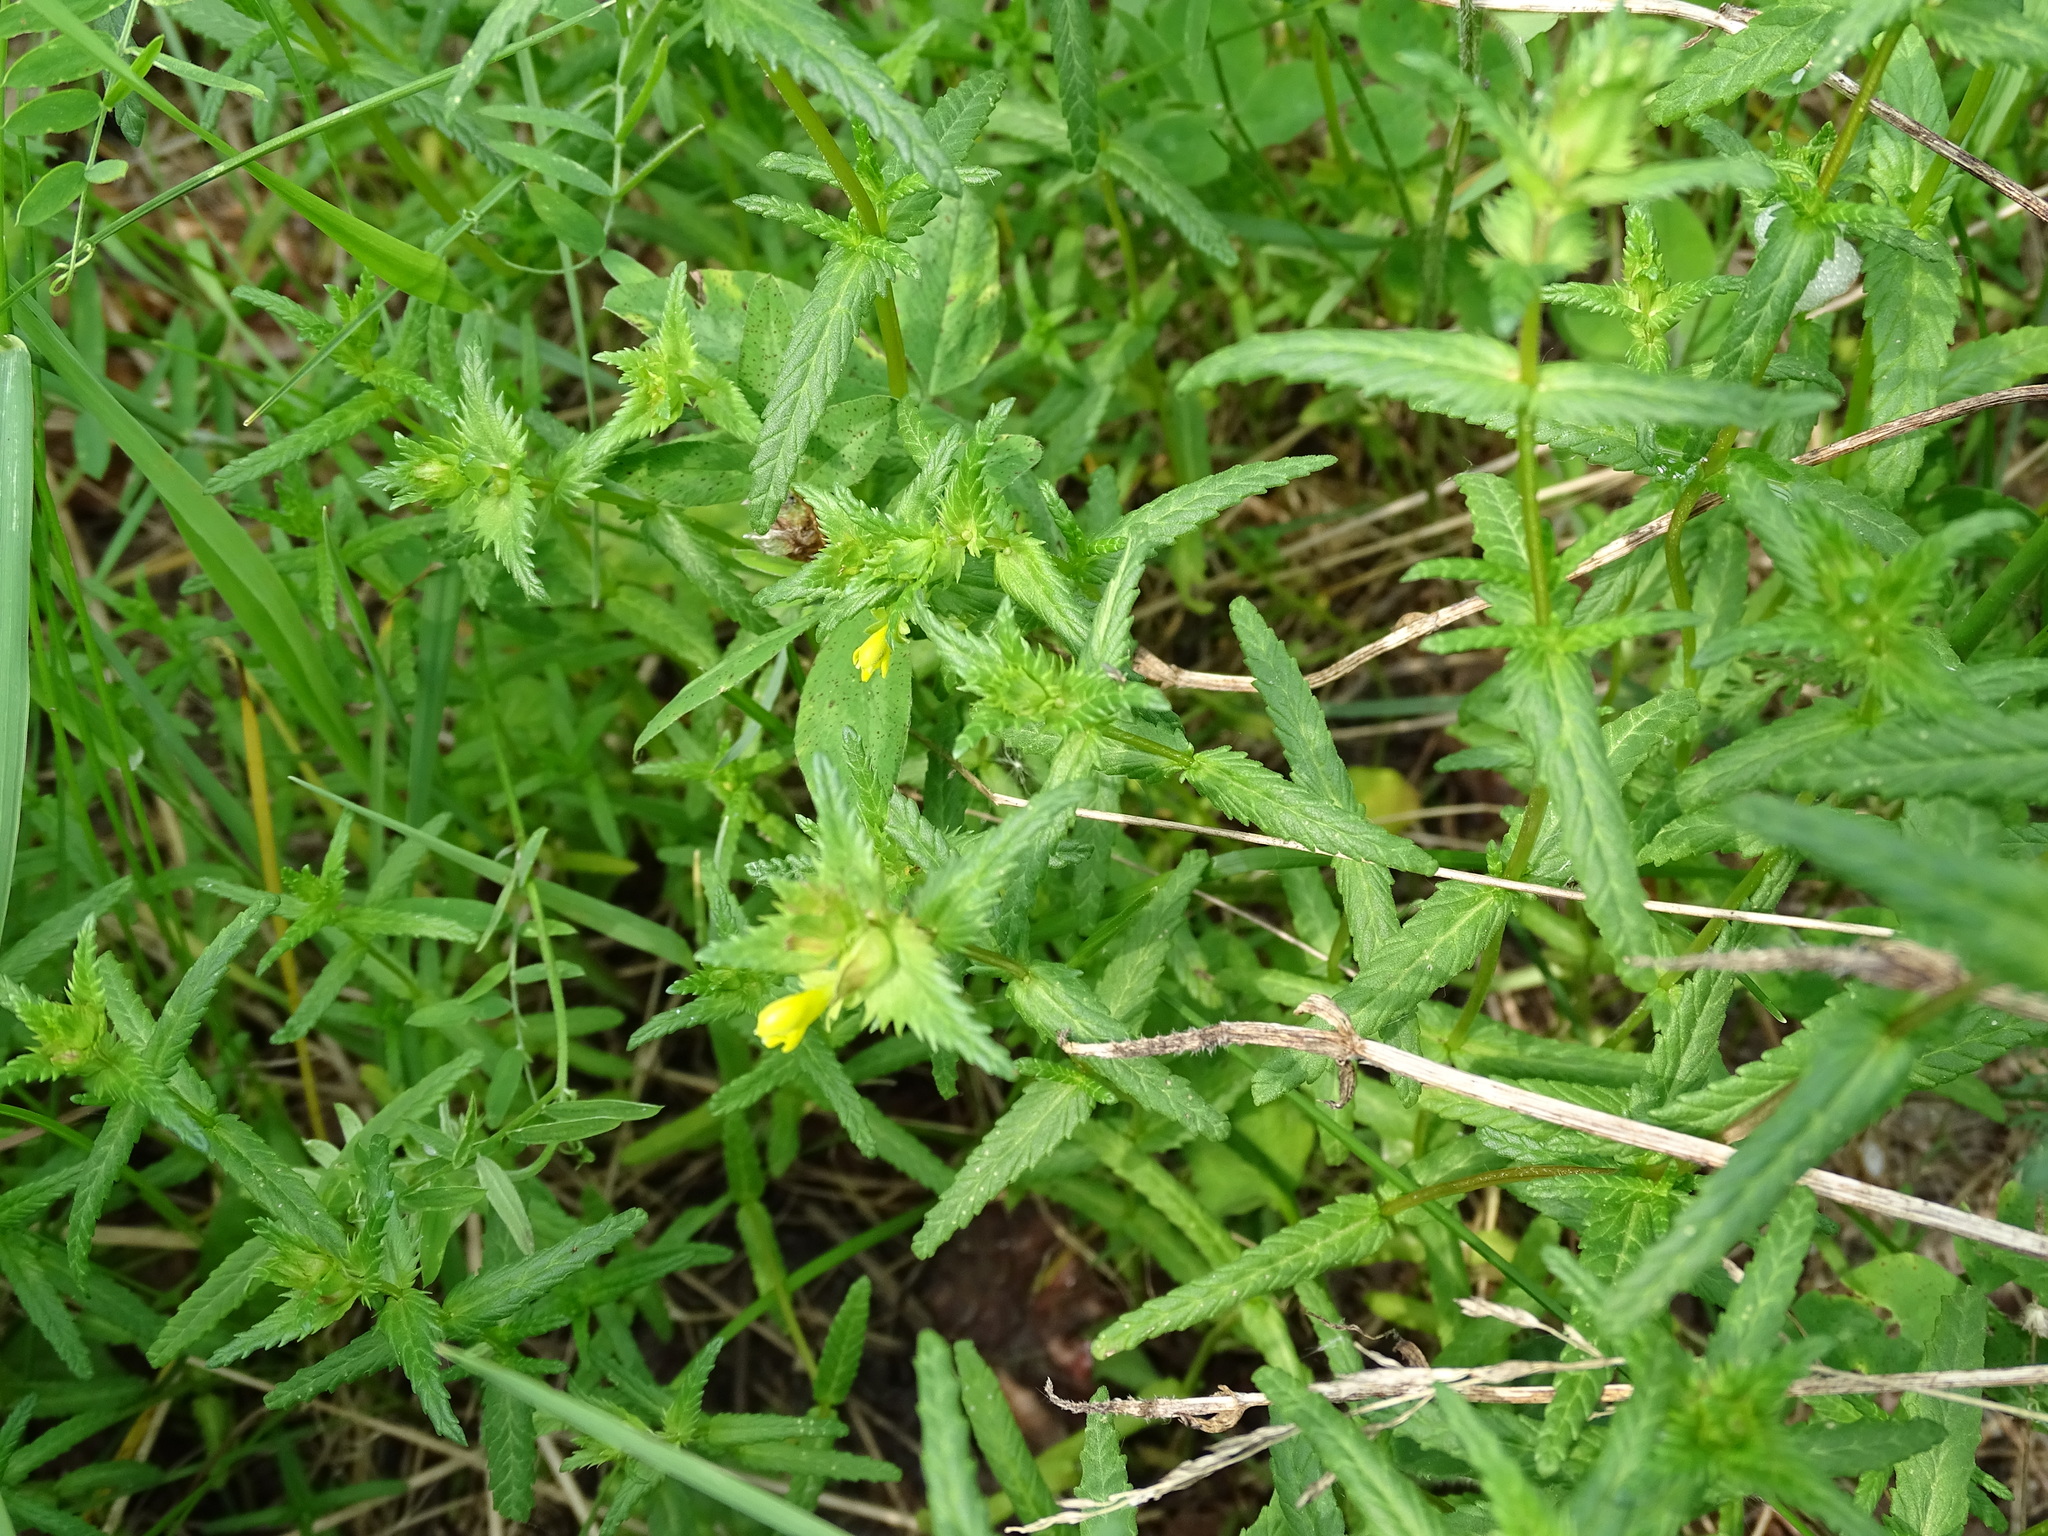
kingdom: Plantae
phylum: Tracheophyta
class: Magnoliopsida
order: Lamiales
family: Orobanchaceae
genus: Rhinanthus
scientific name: Rhinanthus minor
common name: Yellow-rattle
